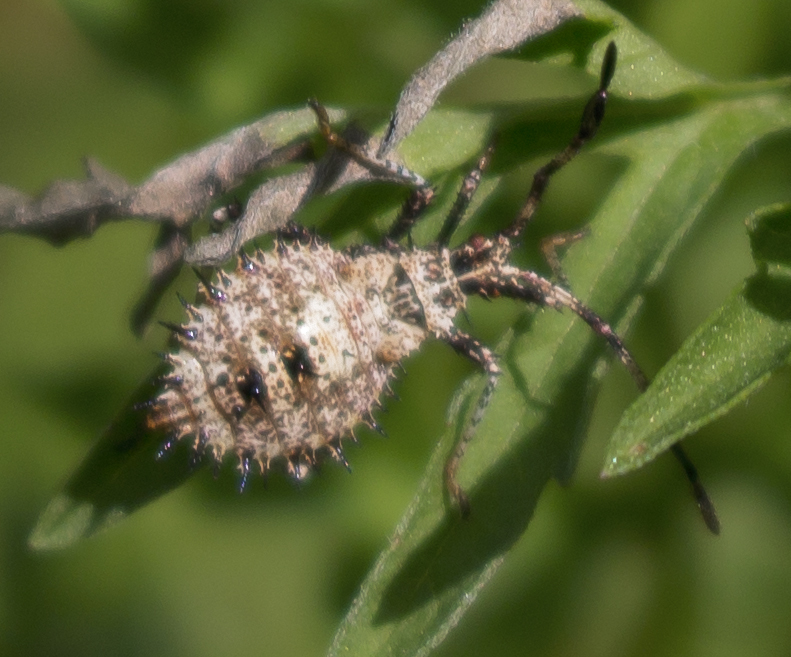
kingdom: Animalia
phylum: Arthropoda
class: Insecta
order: Hemiptera
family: Coreidae
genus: Euthochtha
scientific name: Euthochtha galeator
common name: Helmeted squash bug
